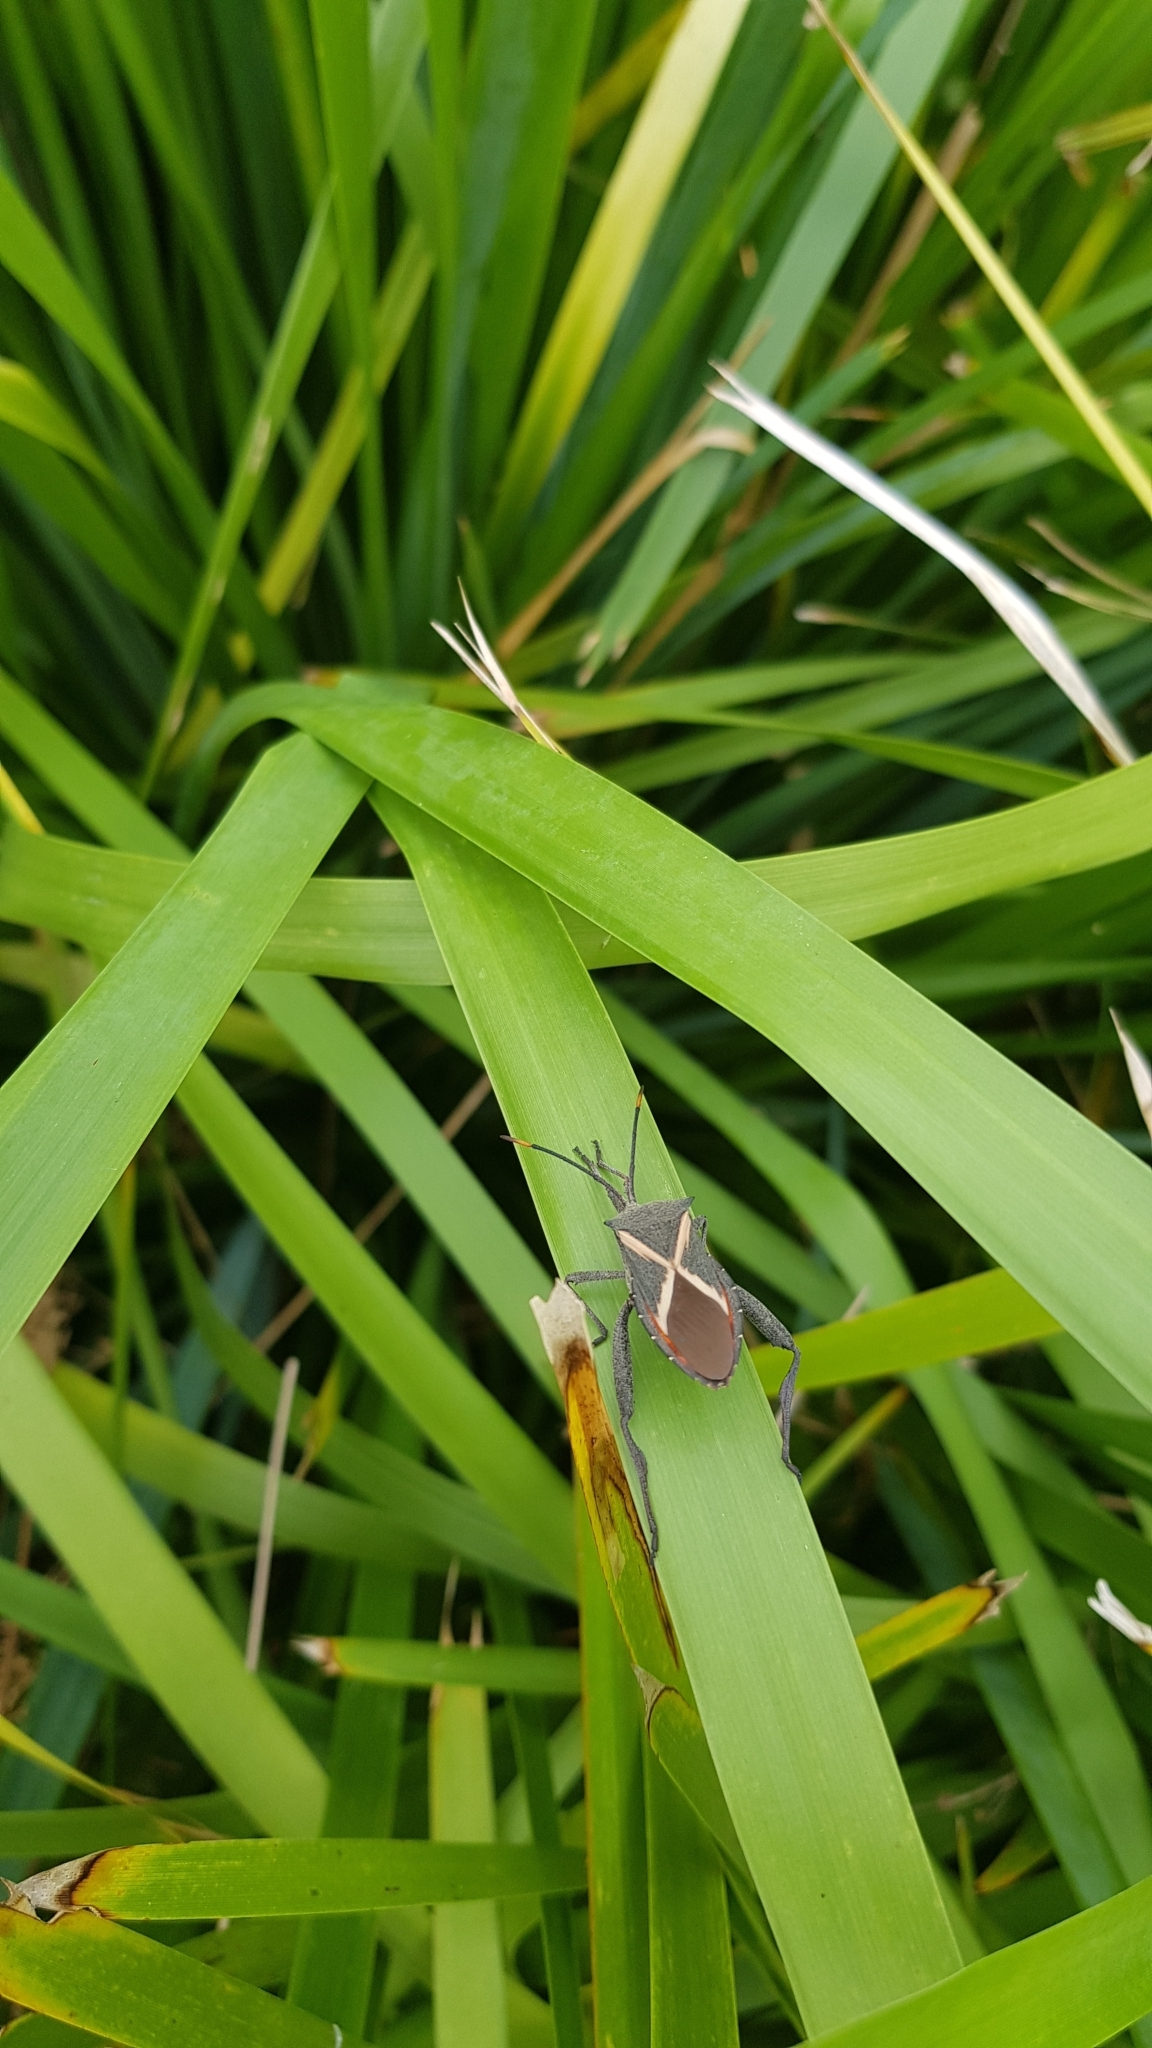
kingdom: Animalia
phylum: Arthropoda
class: Insecta
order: Hemiptera
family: Coreidae
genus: Mictis
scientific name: Mictis profana
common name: Crusader bug
